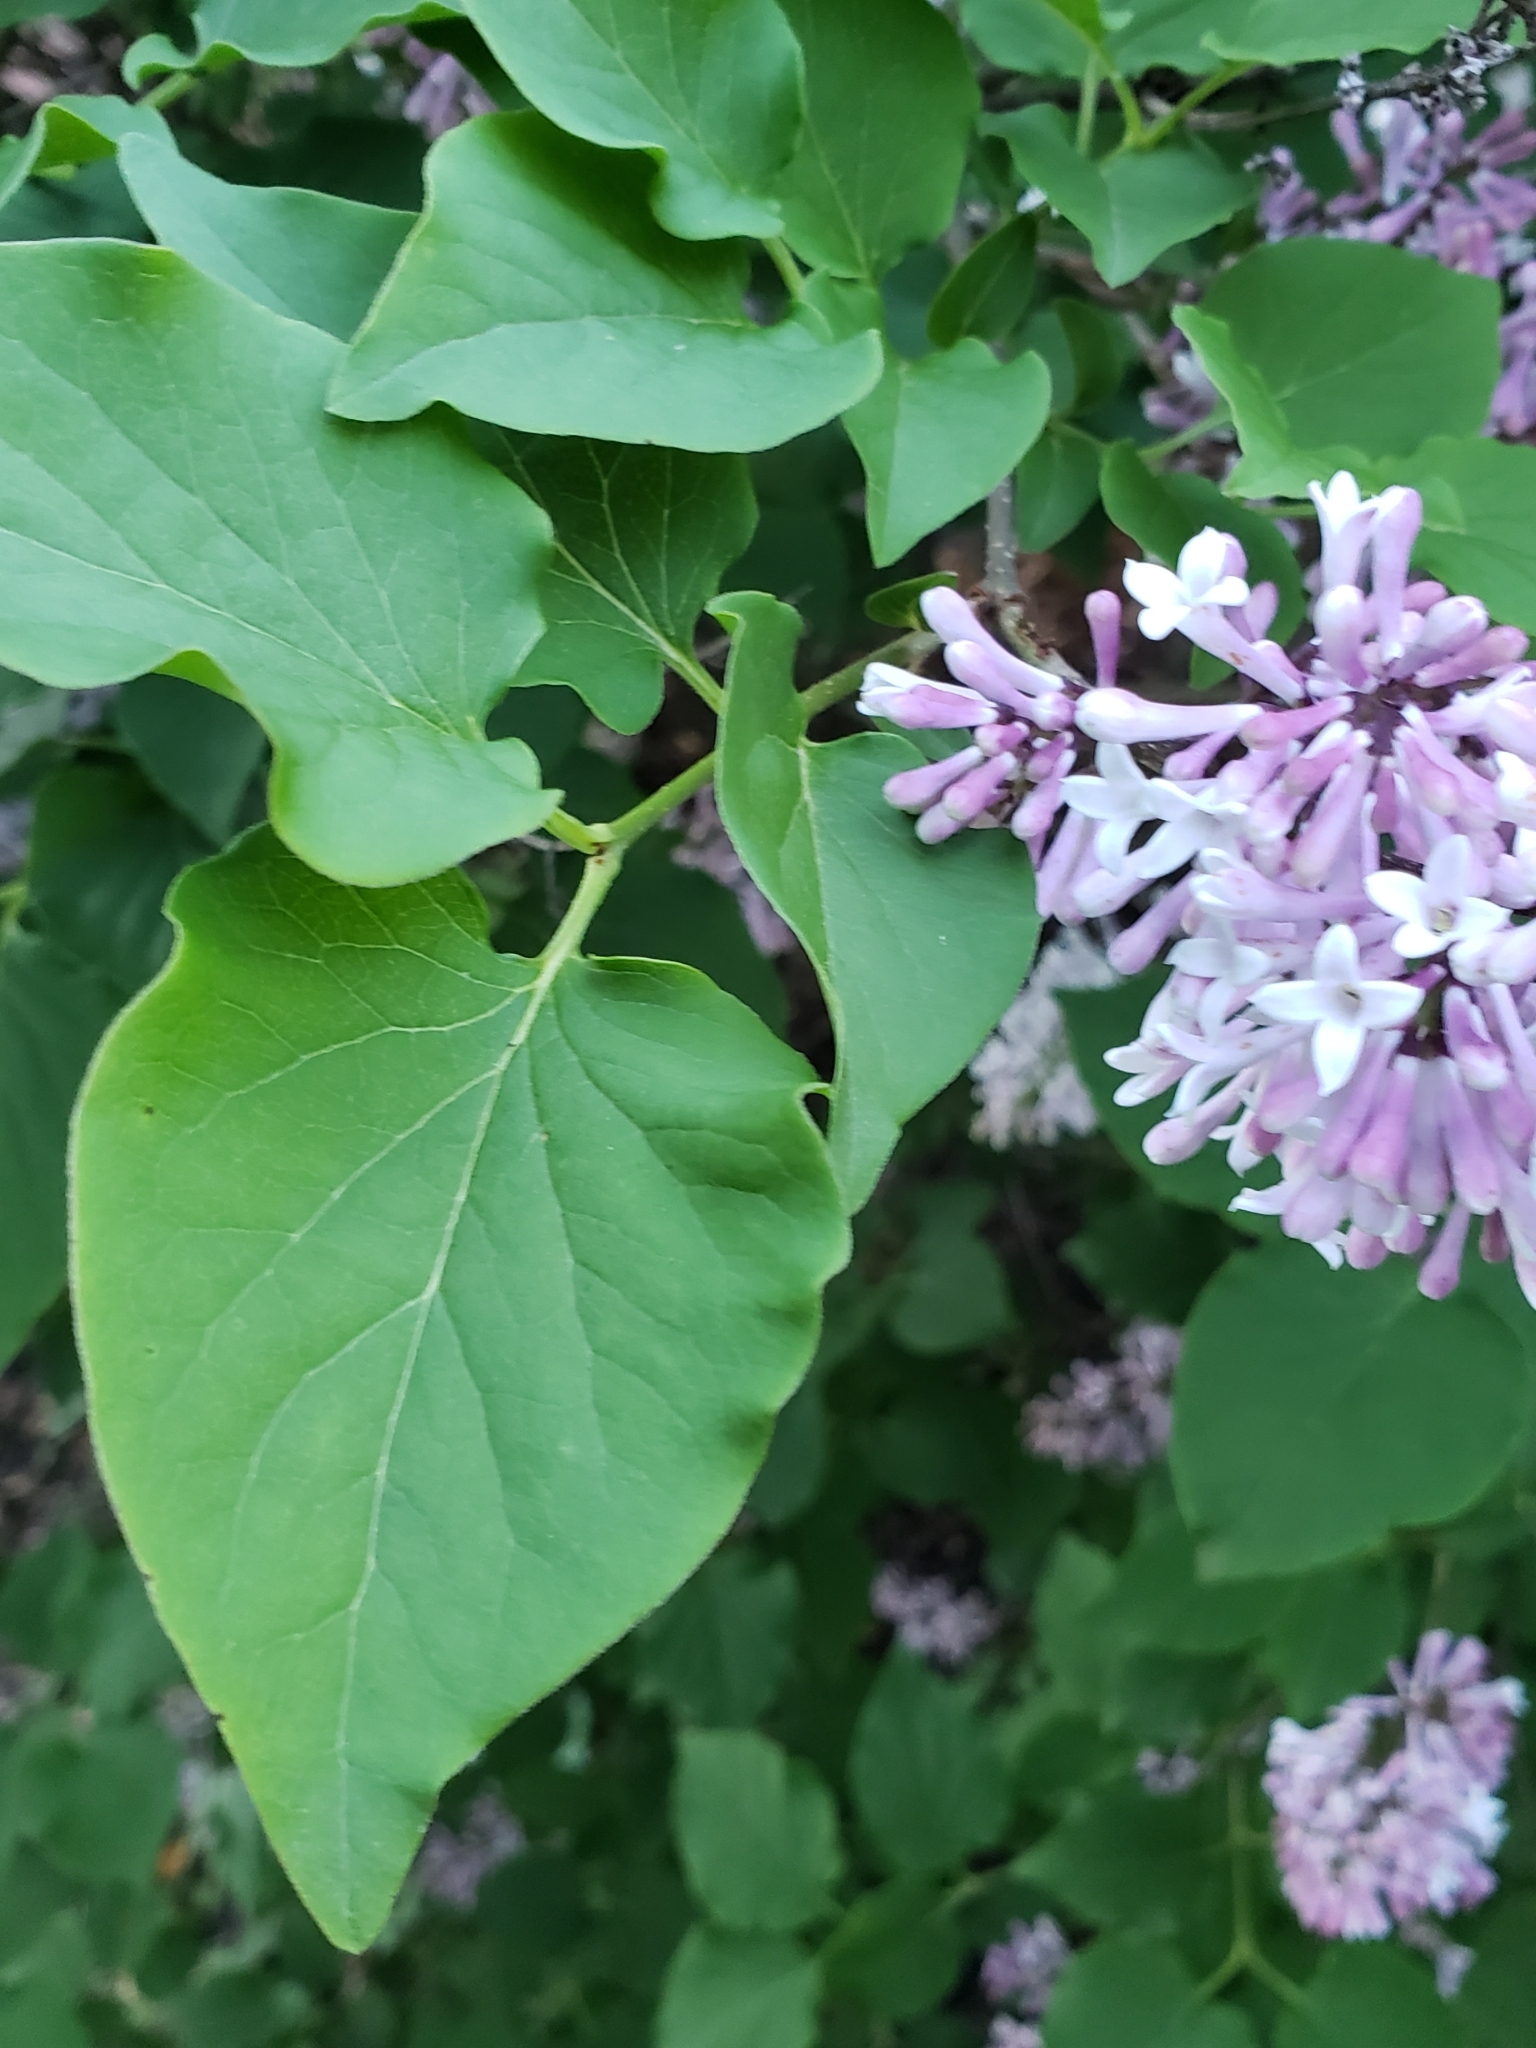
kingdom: Plantae
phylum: Tracheophyta
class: Magnoliopsida
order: Lamiales
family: Oleaceae
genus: Syringa
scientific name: Syringa vulgaris
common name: Common lilac
